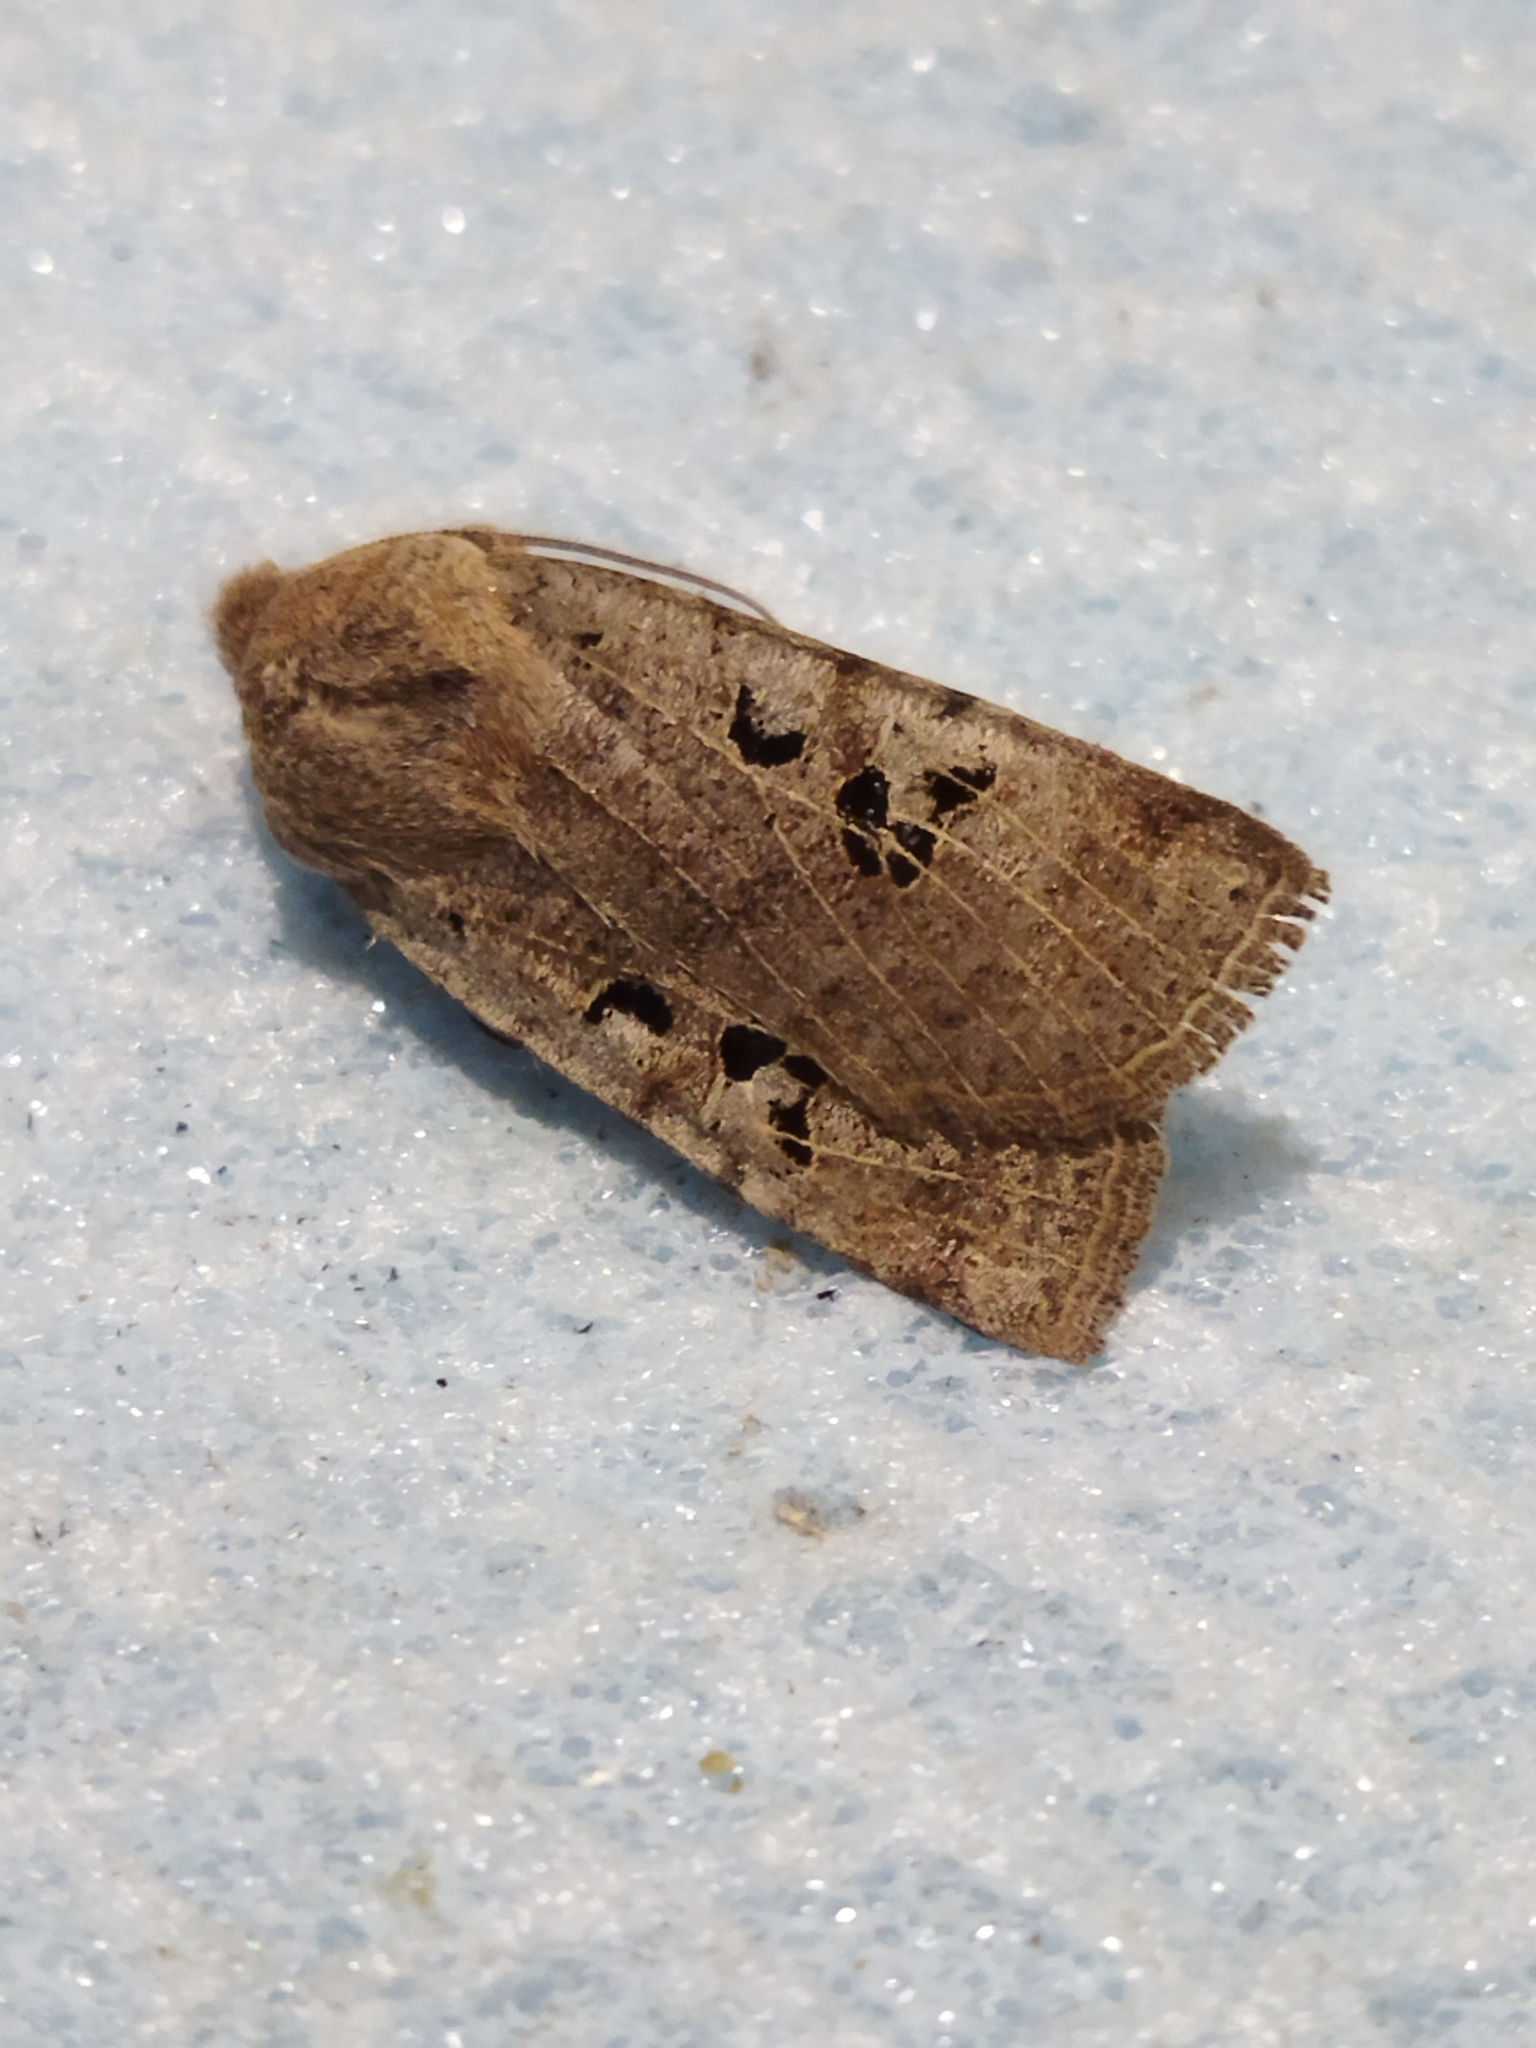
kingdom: Animalia
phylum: Arthropoda
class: Insecta
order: Lepidoptera
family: Noctuidae
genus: Conistra
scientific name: Conistra rubiginosa
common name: Black-spotted chestnut
